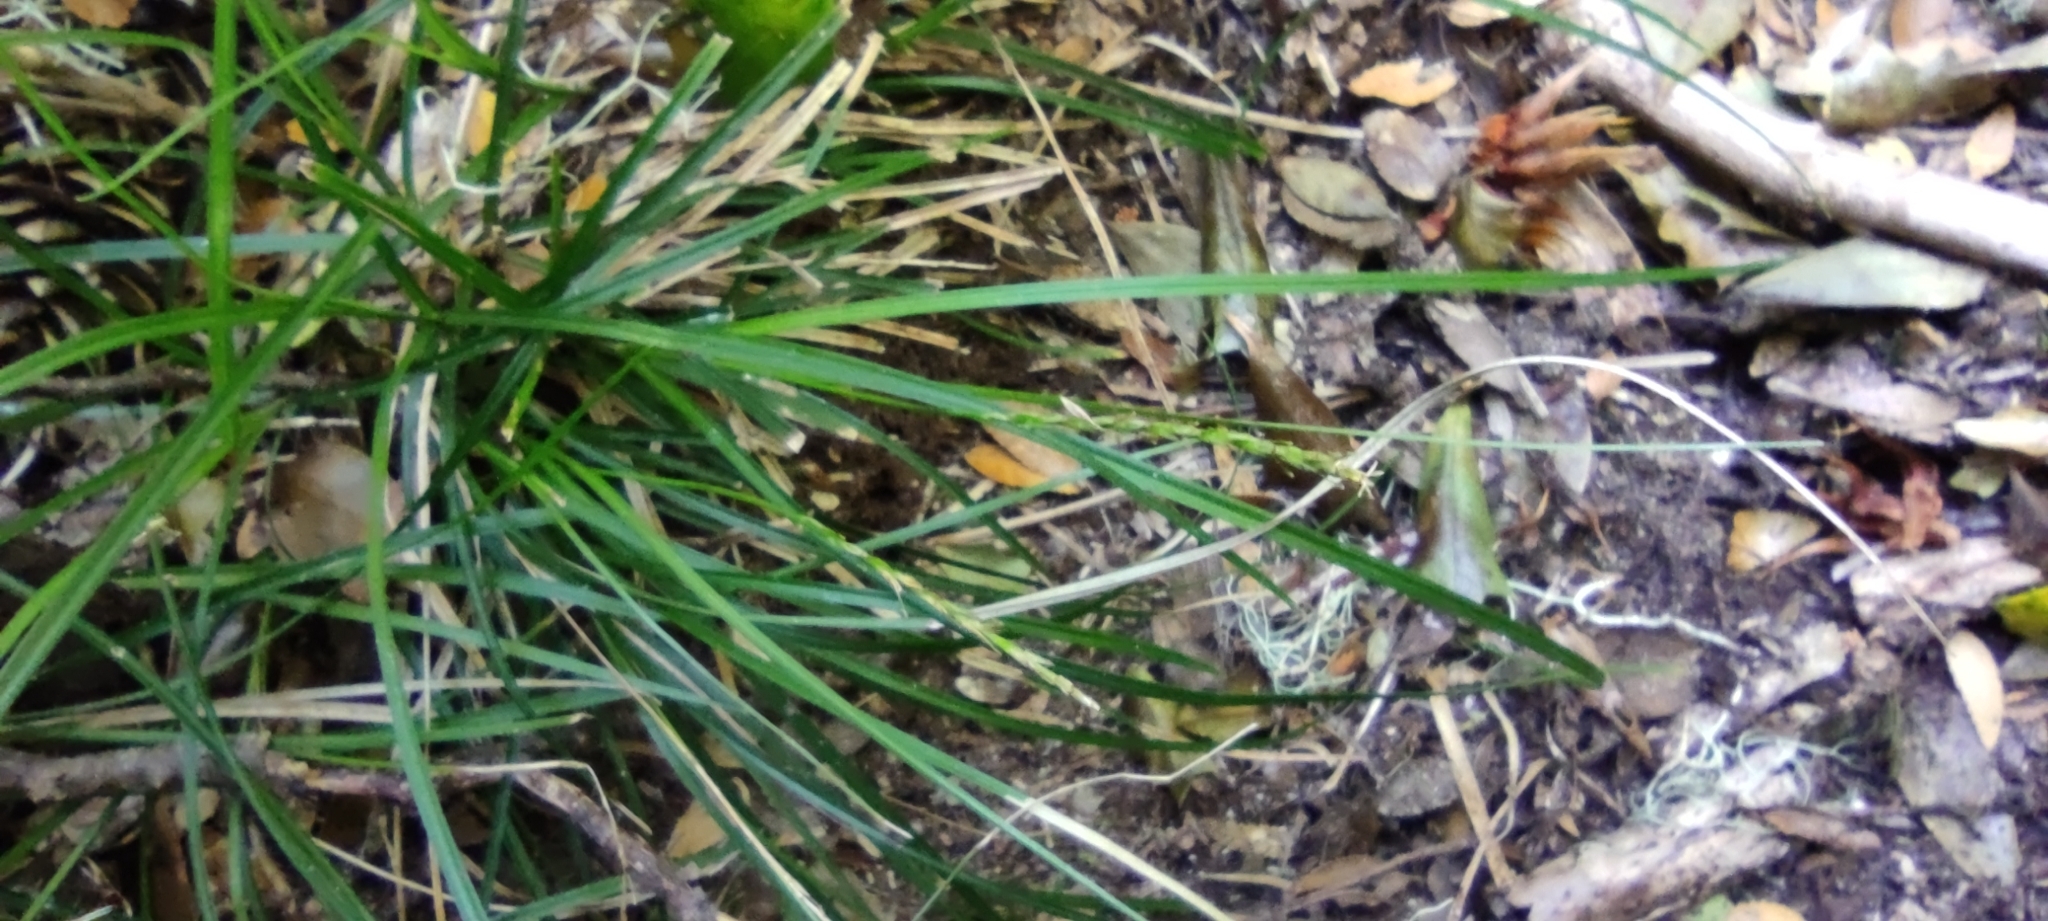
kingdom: Plantae
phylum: Tracheophyta
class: Liliopsida
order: Poales
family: Cyperaceae
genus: Carex
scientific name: Carex firmula
